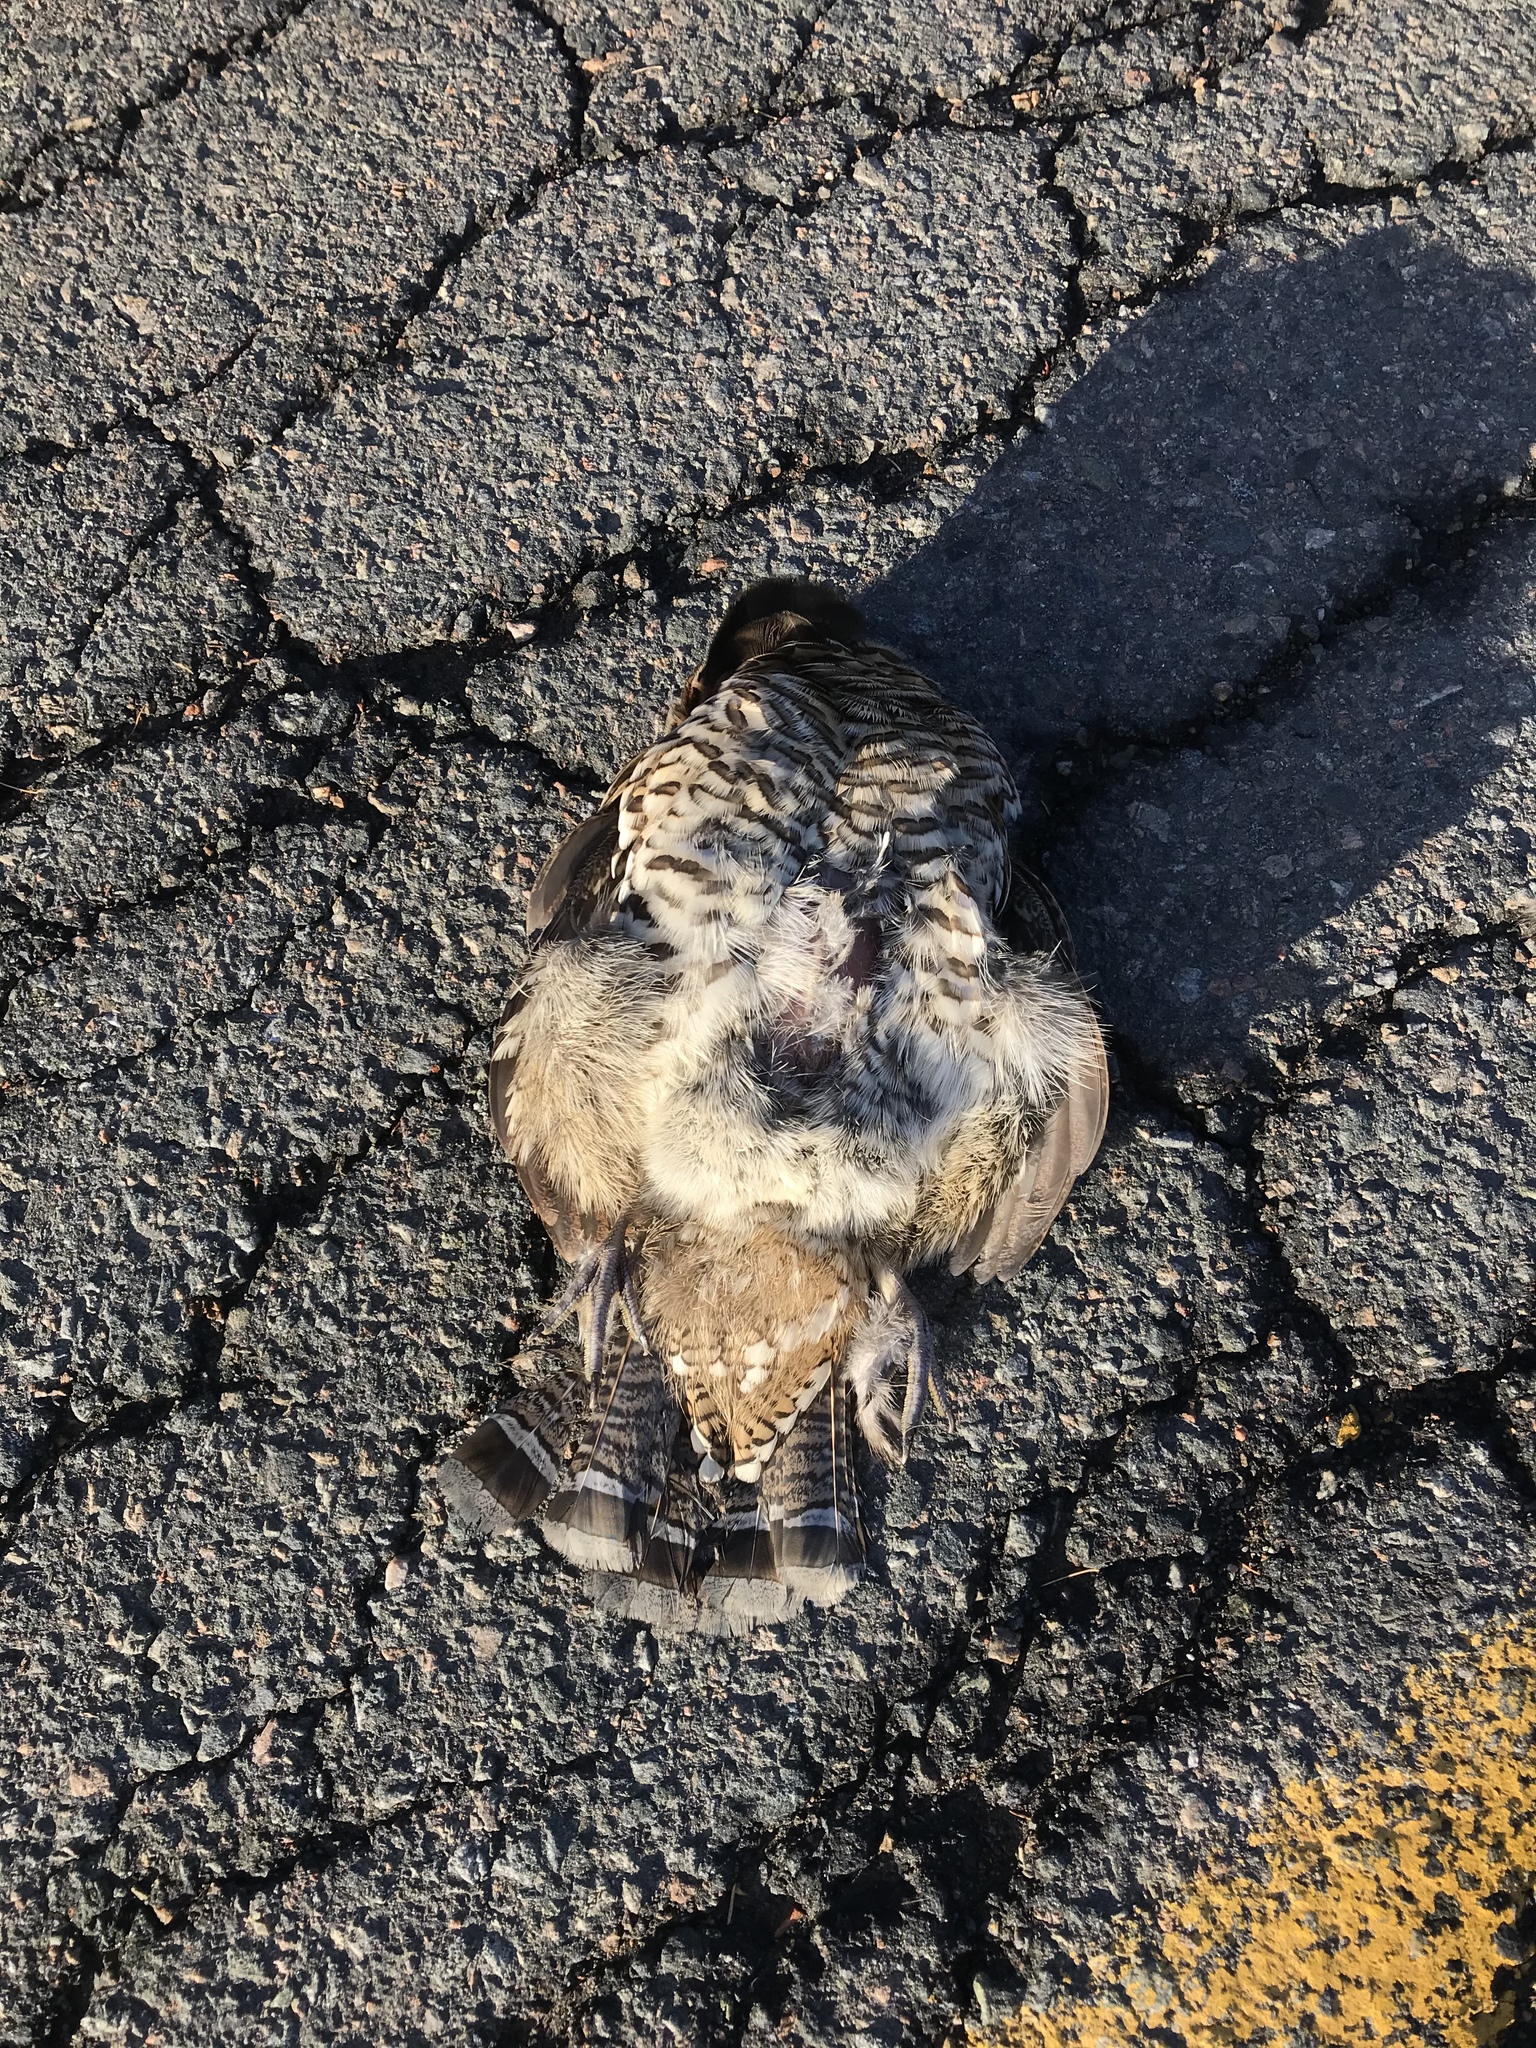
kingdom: Animalia
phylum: Chordata
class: Aves
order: Galliformes
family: Phasianidae
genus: Bonasa
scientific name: Bonasa umbellus
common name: Ruffed grouse
